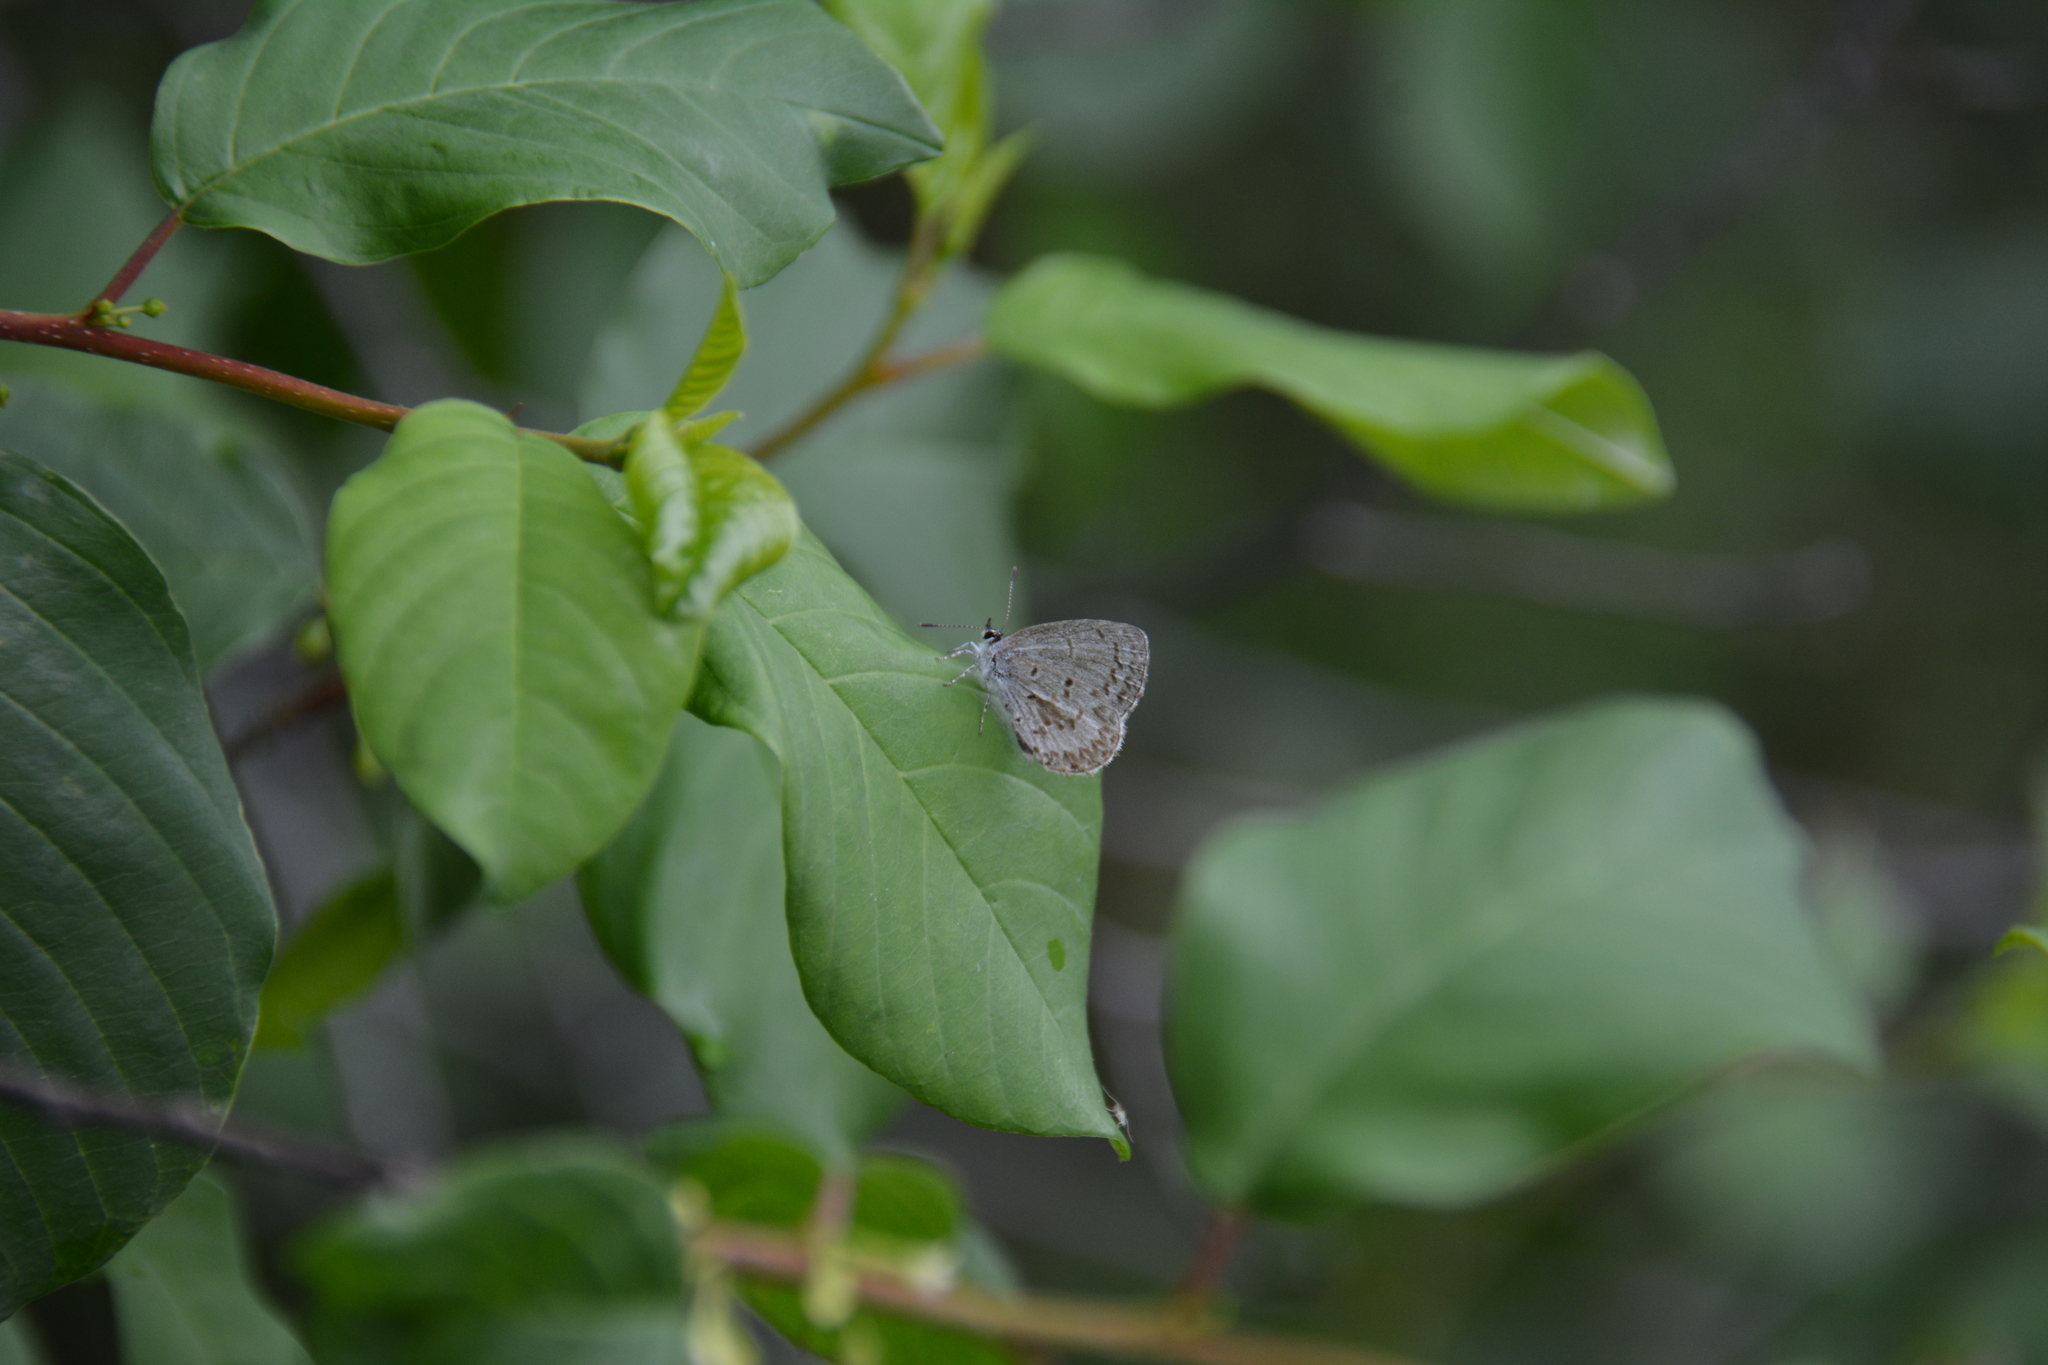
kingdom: Animalia
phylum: Arthropoda
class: Insecta
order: Lepidoptera
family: Lycaenidae
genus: Celastrina
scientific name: Celastrina ladon
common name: Spring azure
